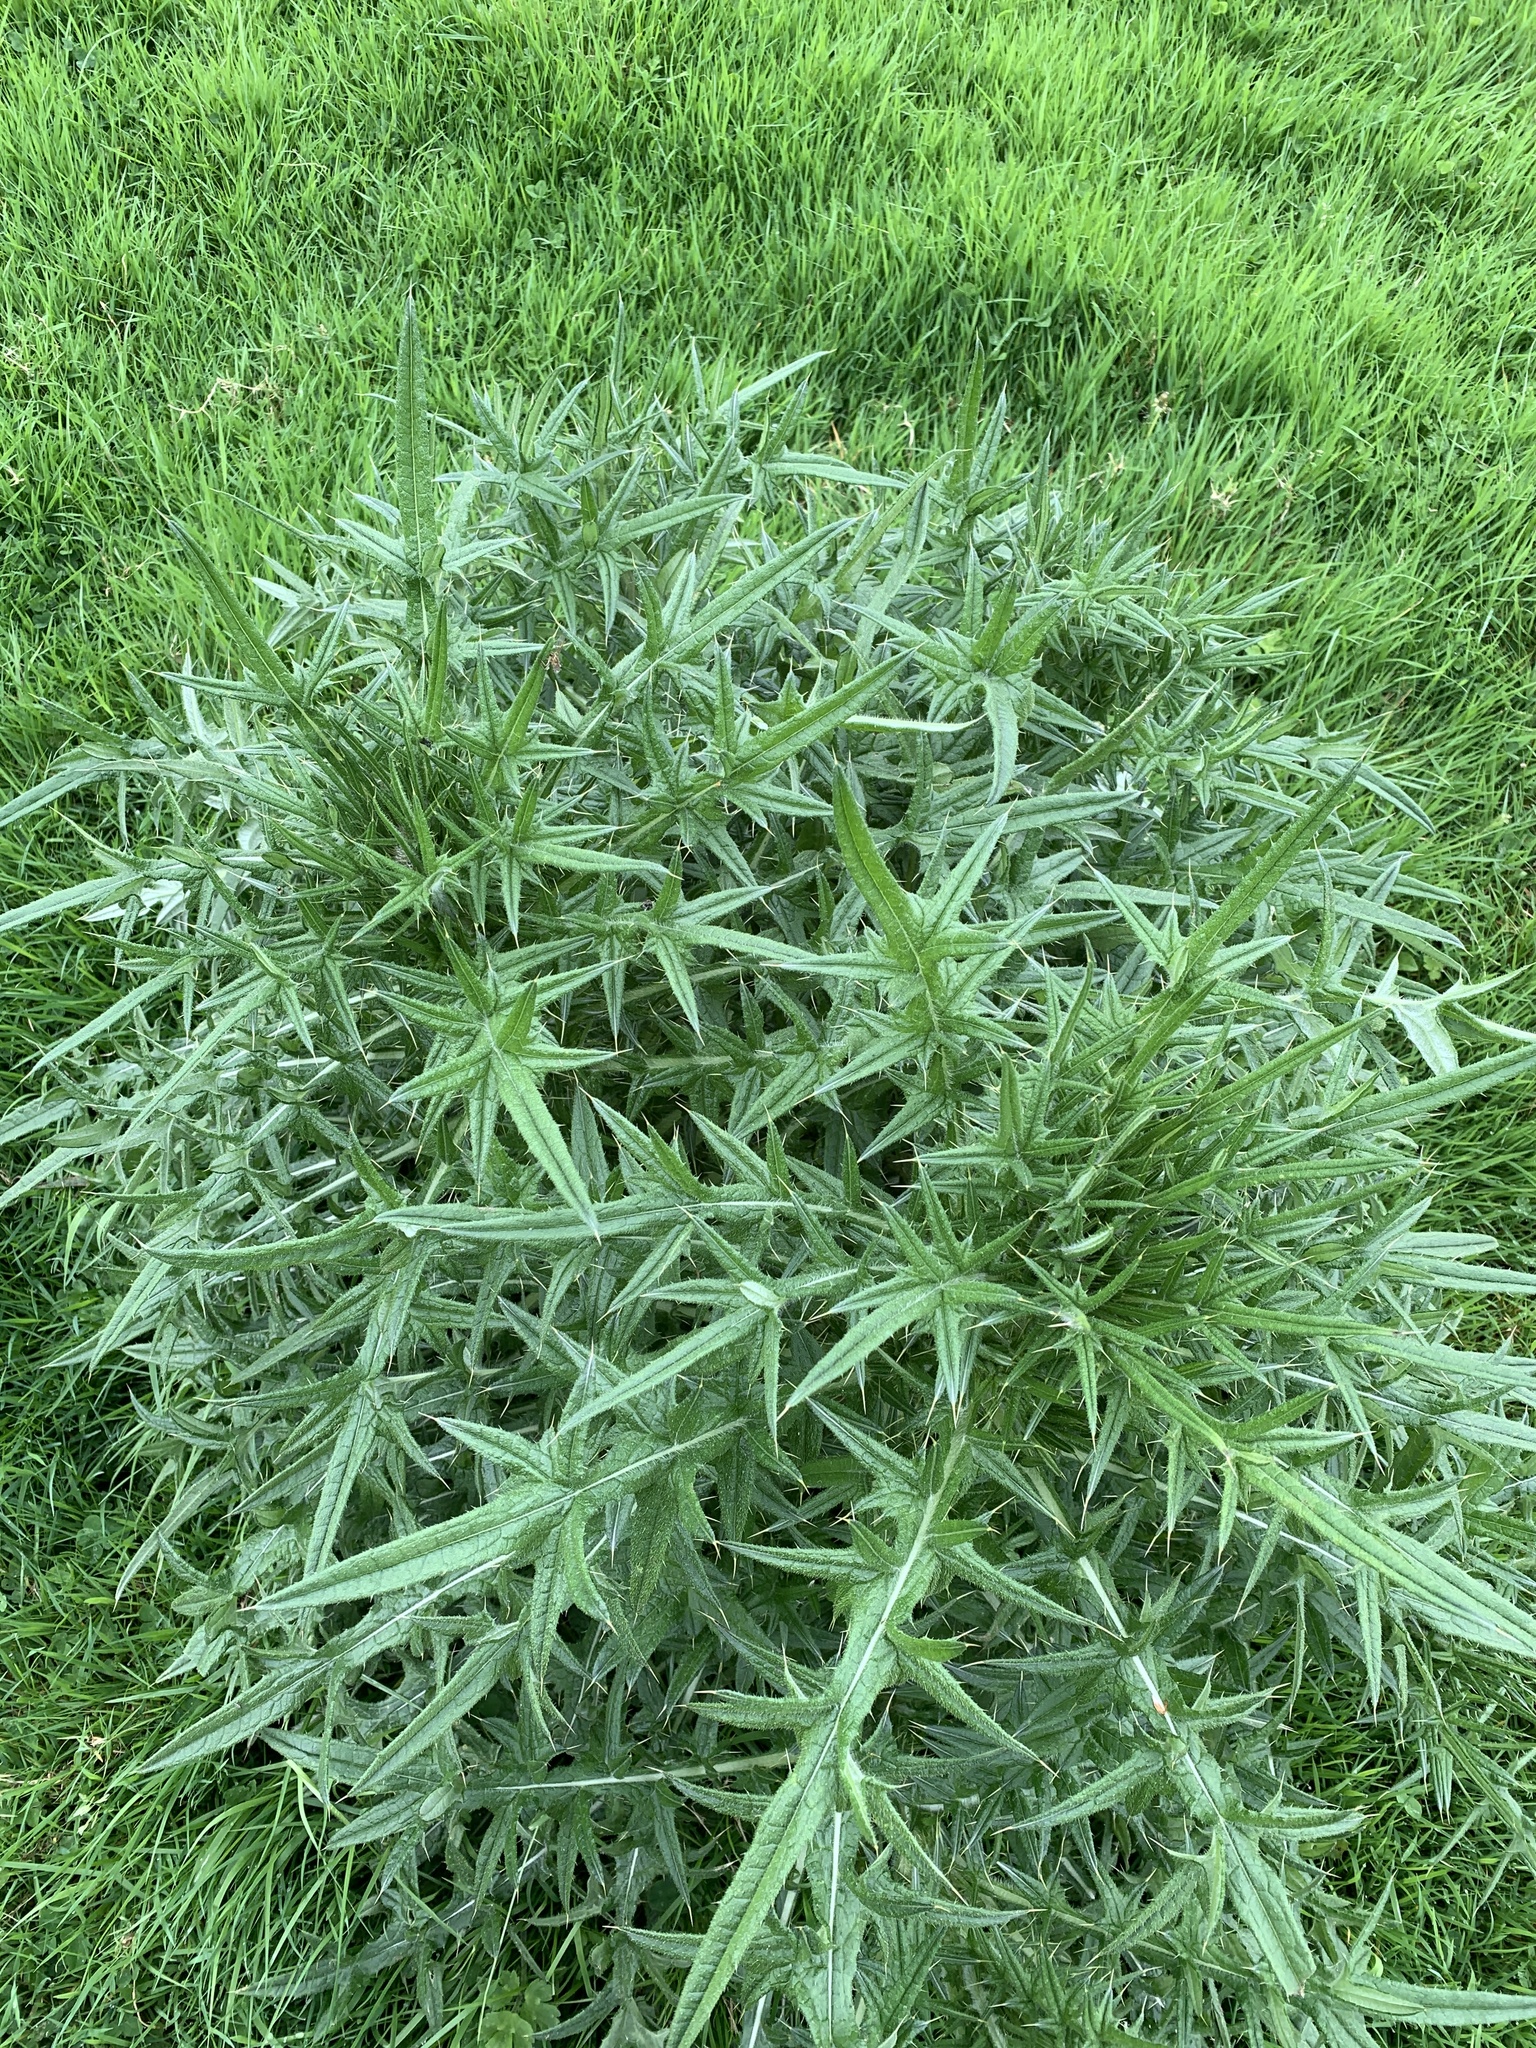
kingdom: Plantae
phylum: Tracheophyta
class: Magnoliopsida
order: Asterales
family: Asteraceae
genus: Cirsium
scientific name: Cirsium vulgare
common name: Bull thistle
